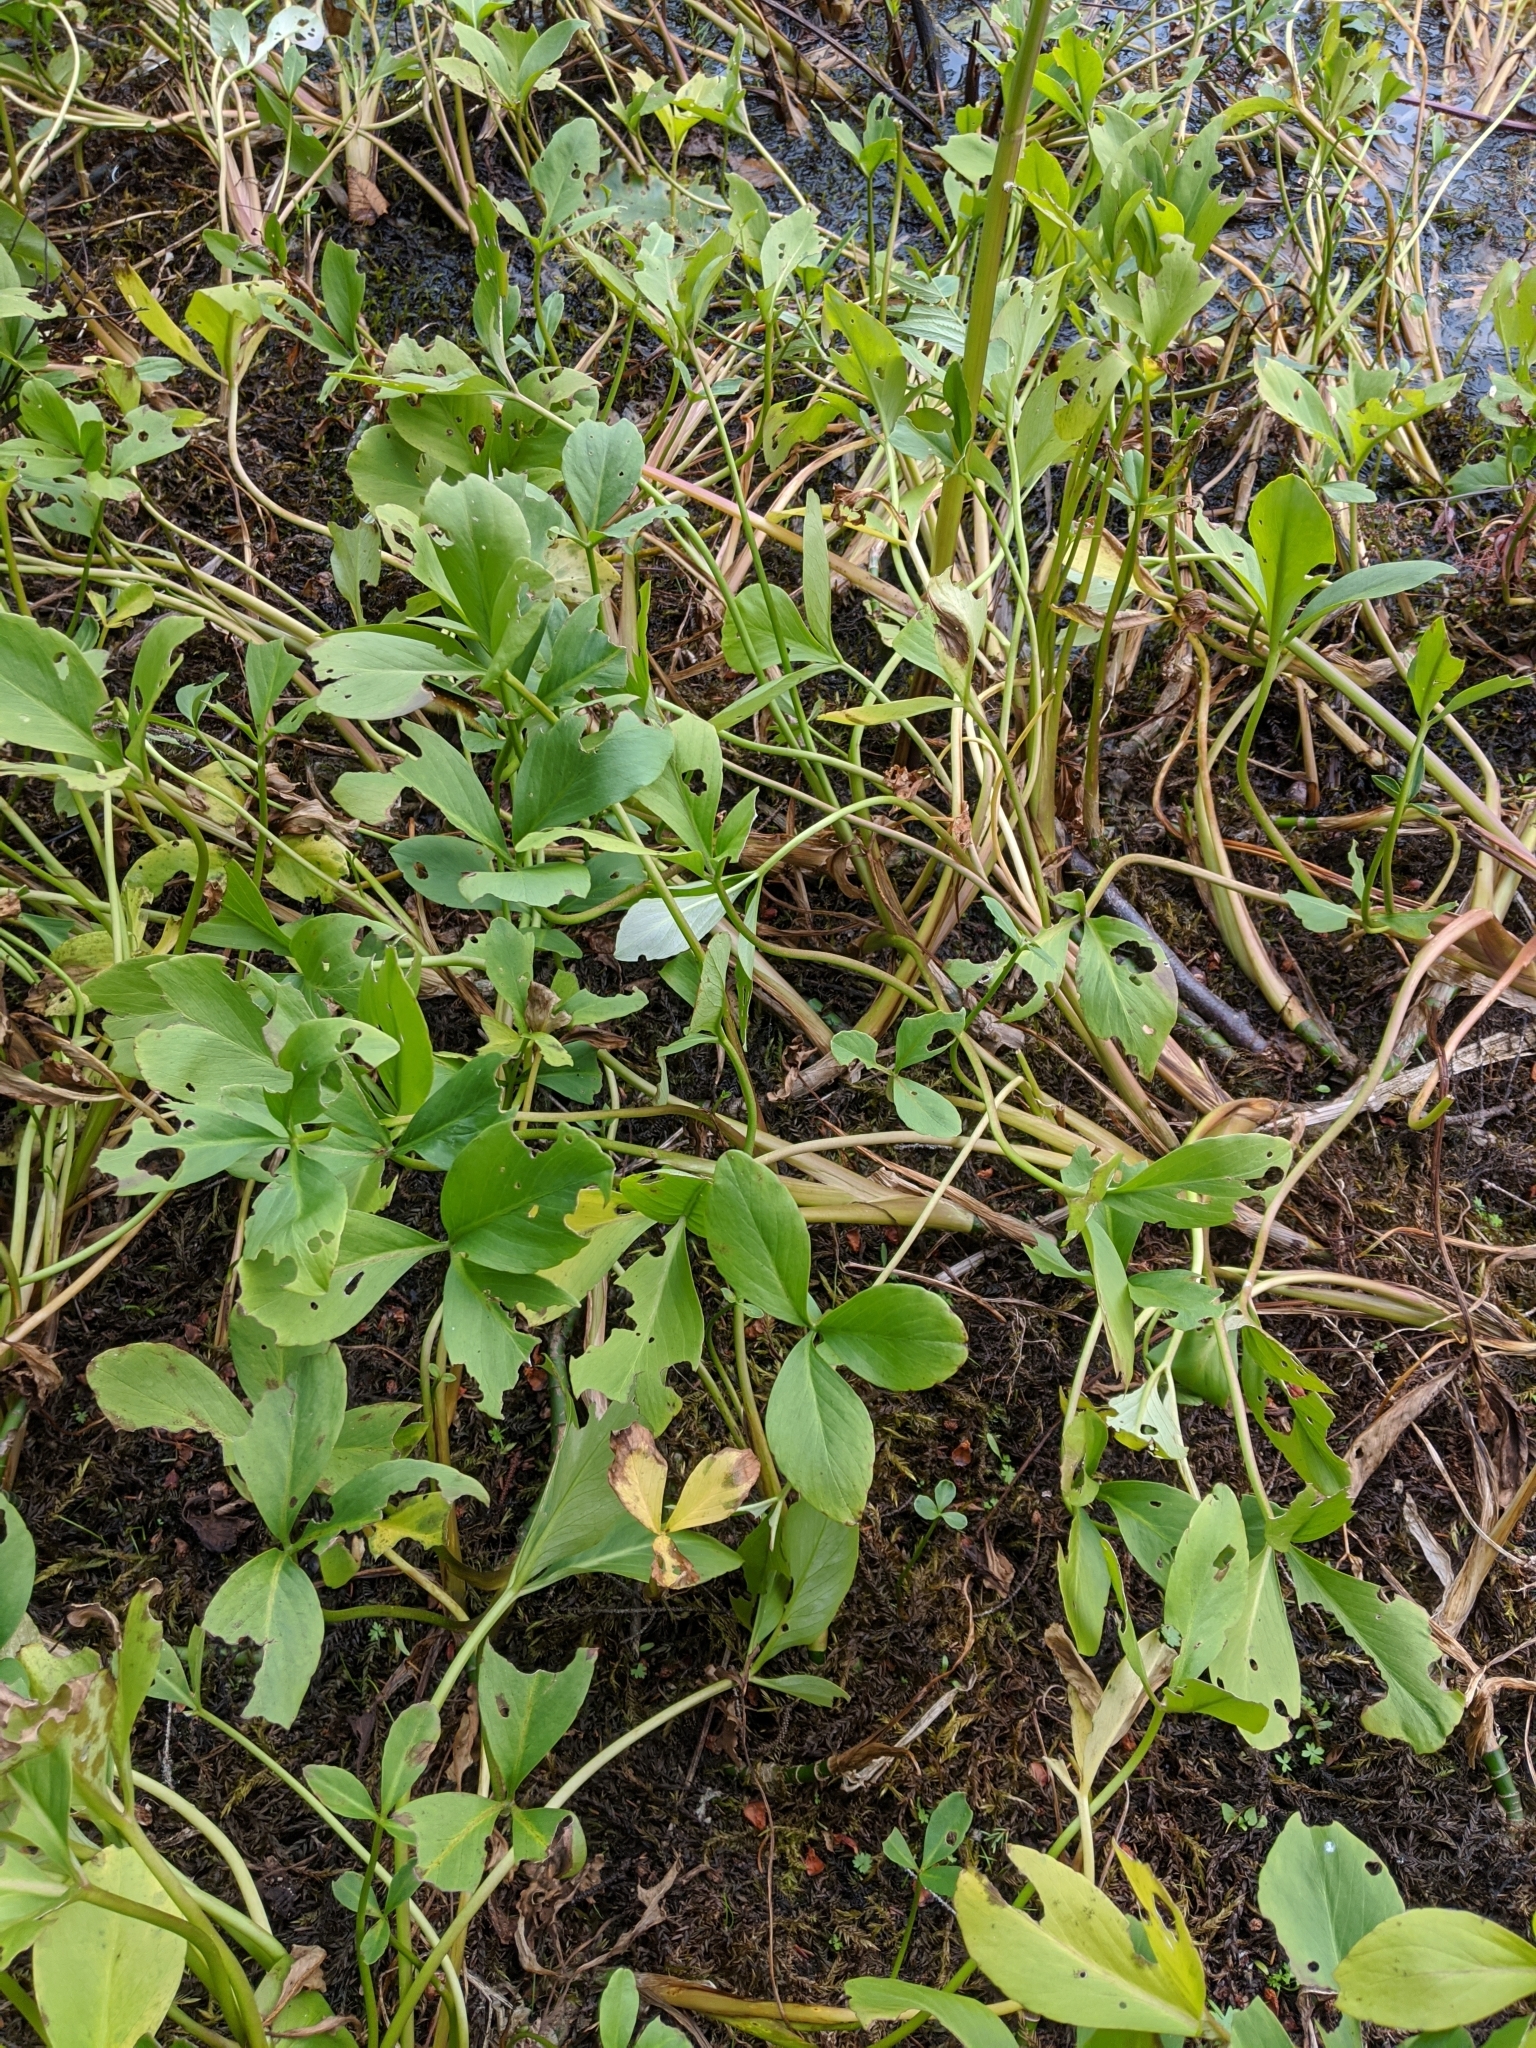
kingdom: Plantae
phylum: Tracheophyta
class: Magnoliopsida
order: Asterales
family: Menyanthaceae
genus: Menyanthes
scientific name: Menyanthes trifoliata
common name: Bogbean
